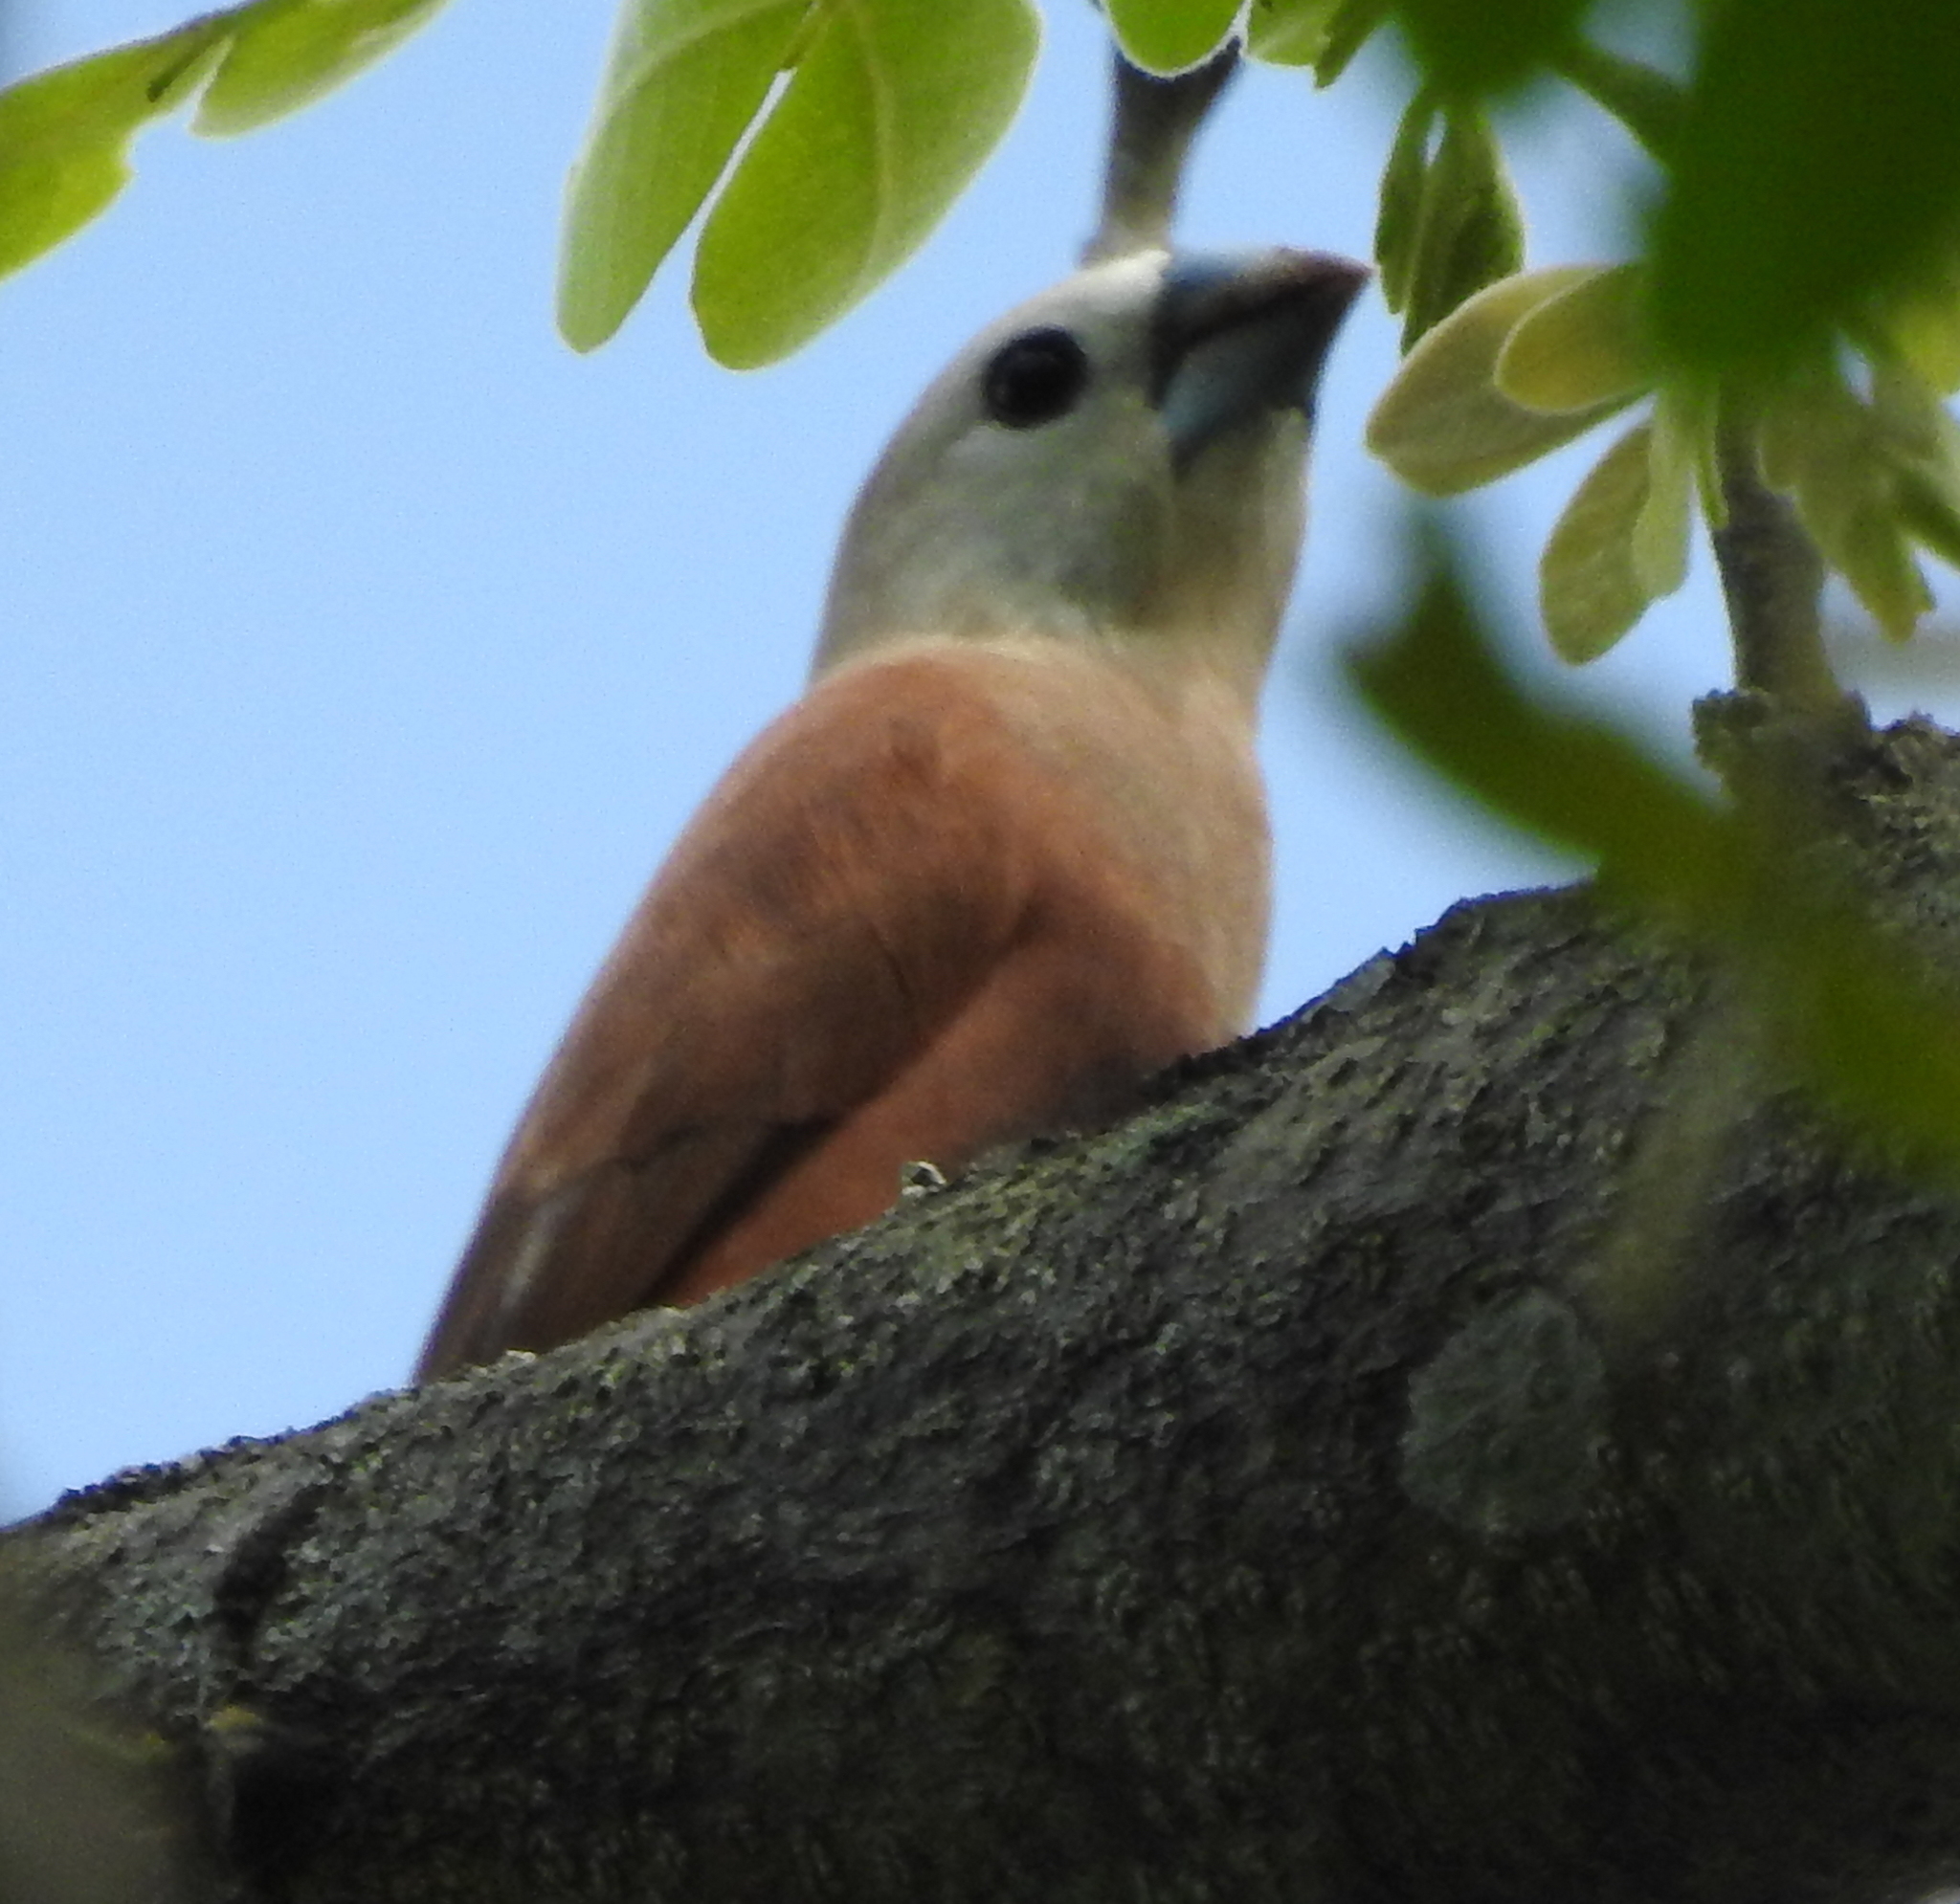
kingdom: Animalia
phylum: Chordata
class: Aves
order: Passeriformes
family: Estrildidae
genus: Lonchura
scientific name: Lonchura maja
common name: White-headed munia
